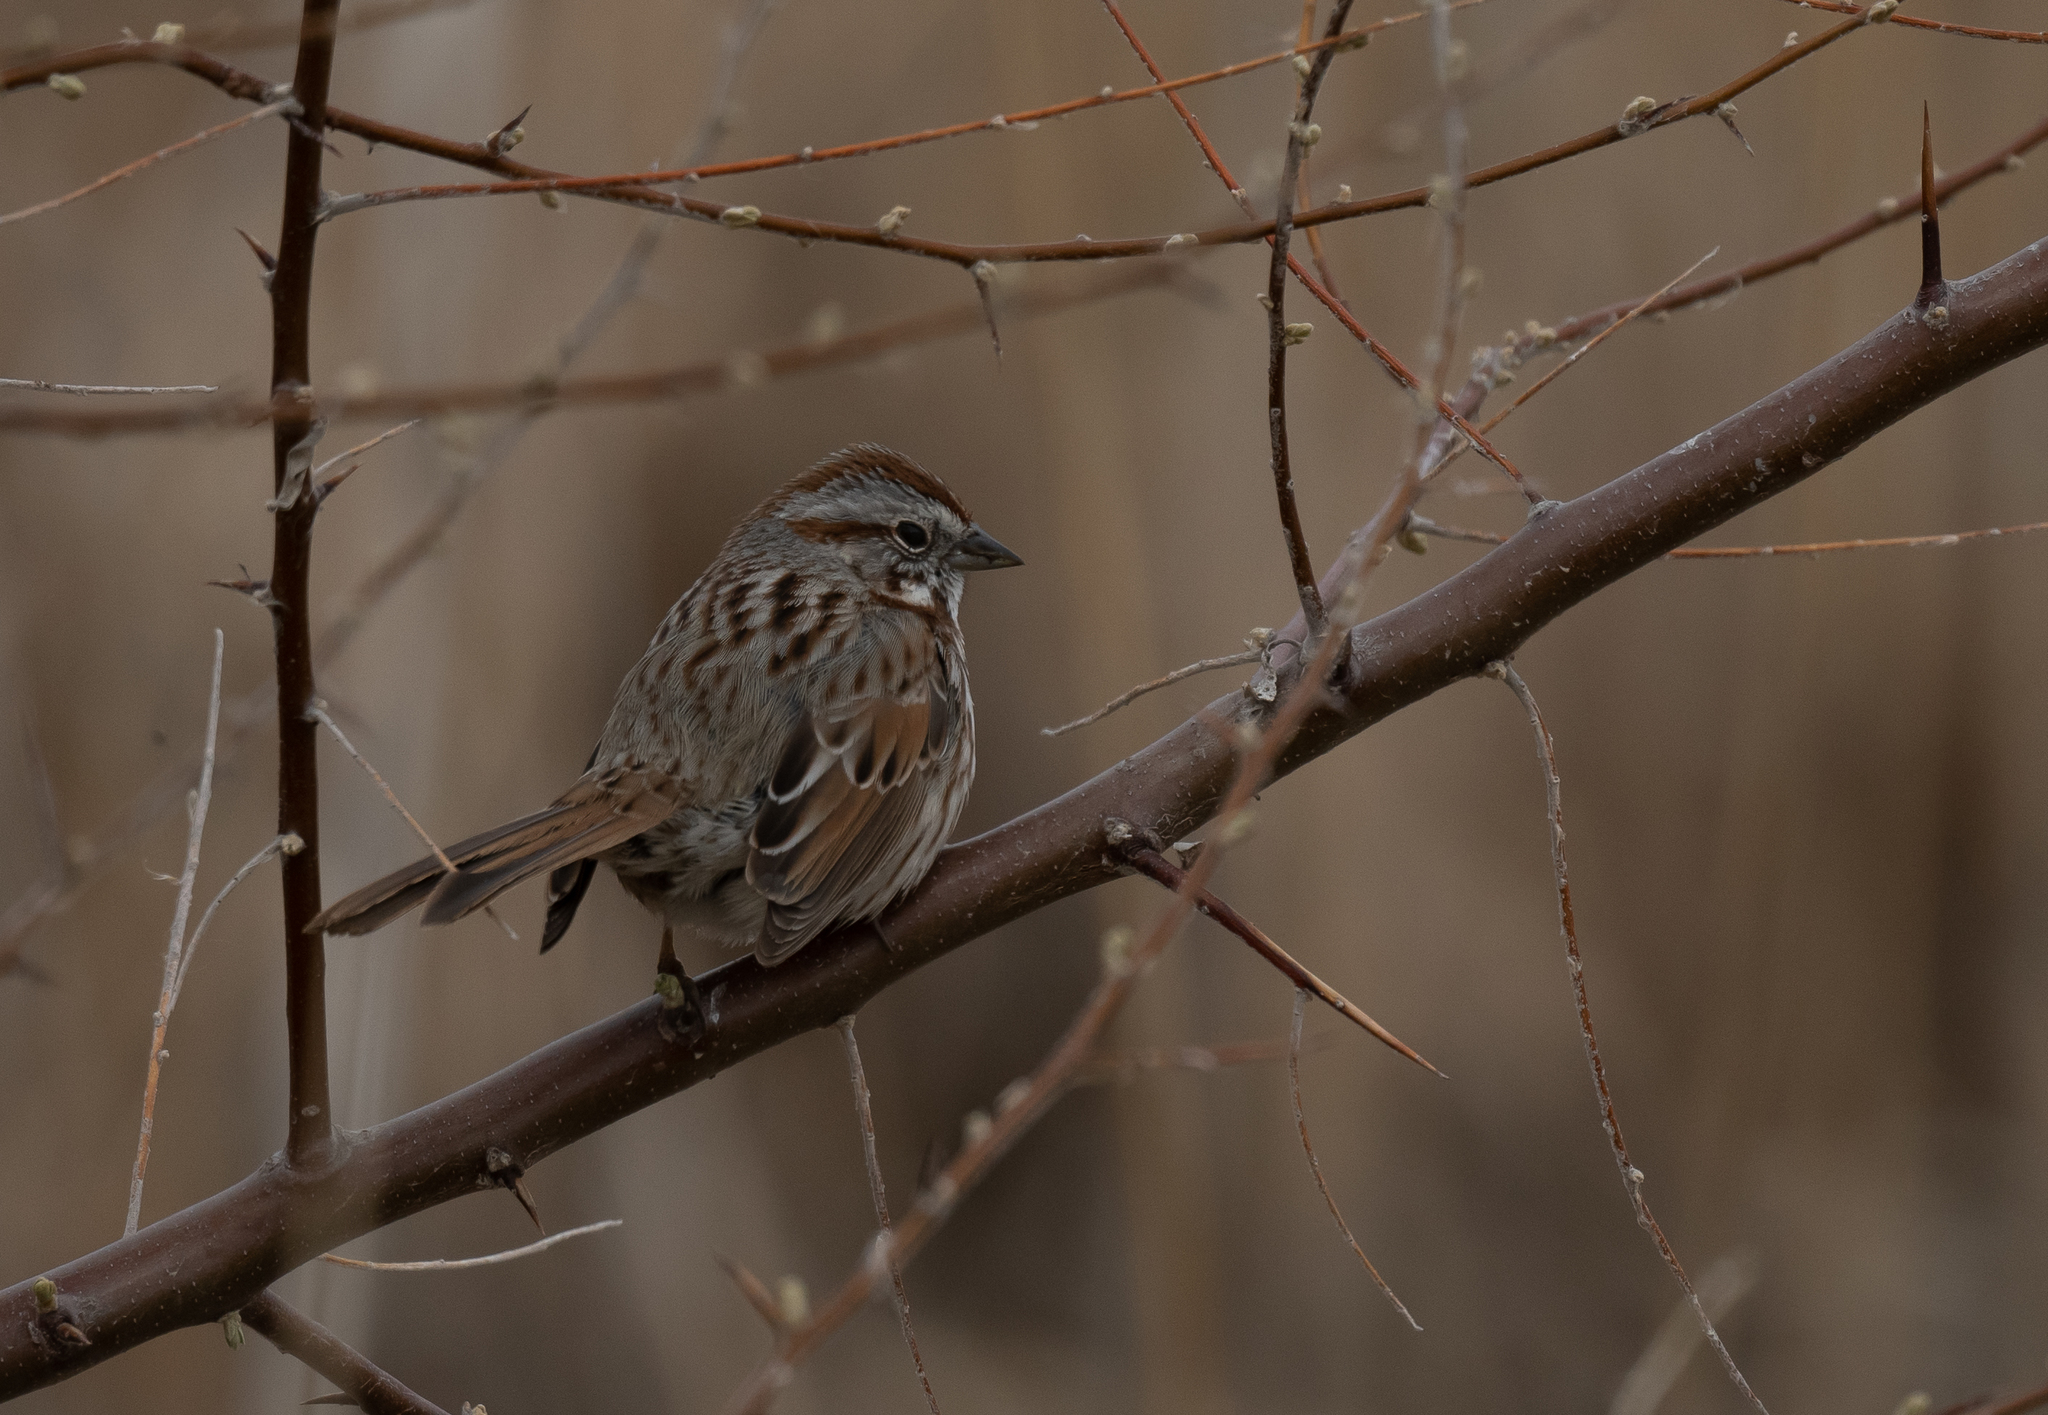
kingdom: Animalia
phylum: Chordata
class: Aves
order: Passeriformes
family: Passerellidae
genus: Melospiza
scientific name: Melospiza melodia
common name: Song sparrow
